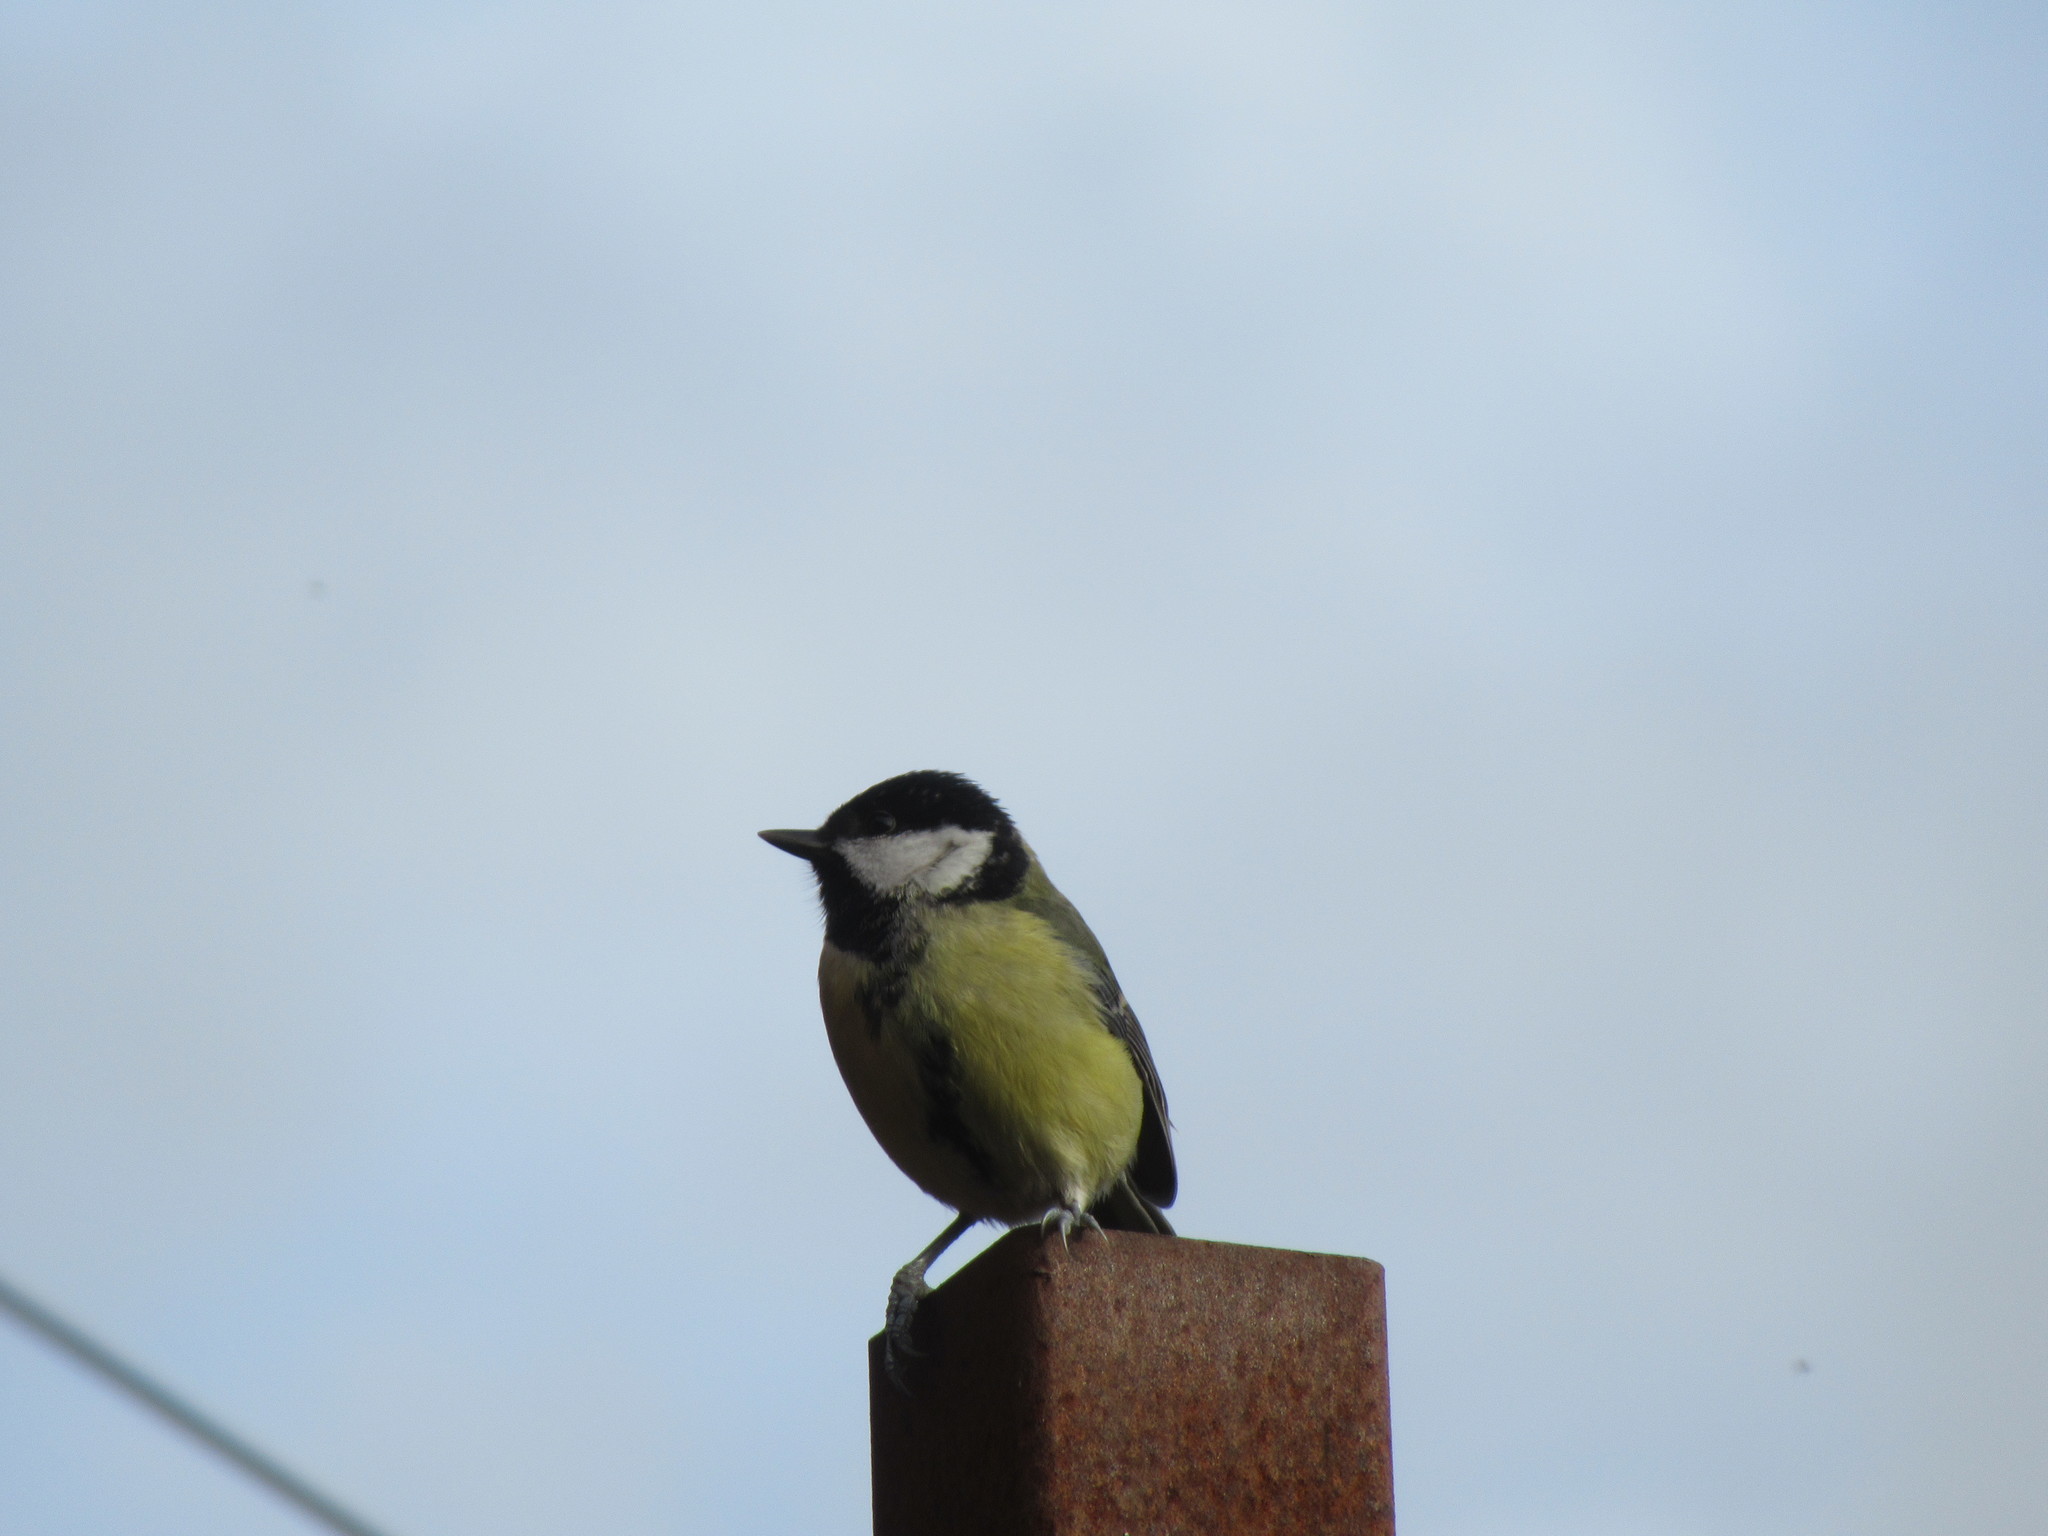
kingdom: Animalia
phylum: Chordata
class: Aves
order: Passeriformes
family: Paridae
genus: Parus
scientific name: Parus major
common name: Great tit
